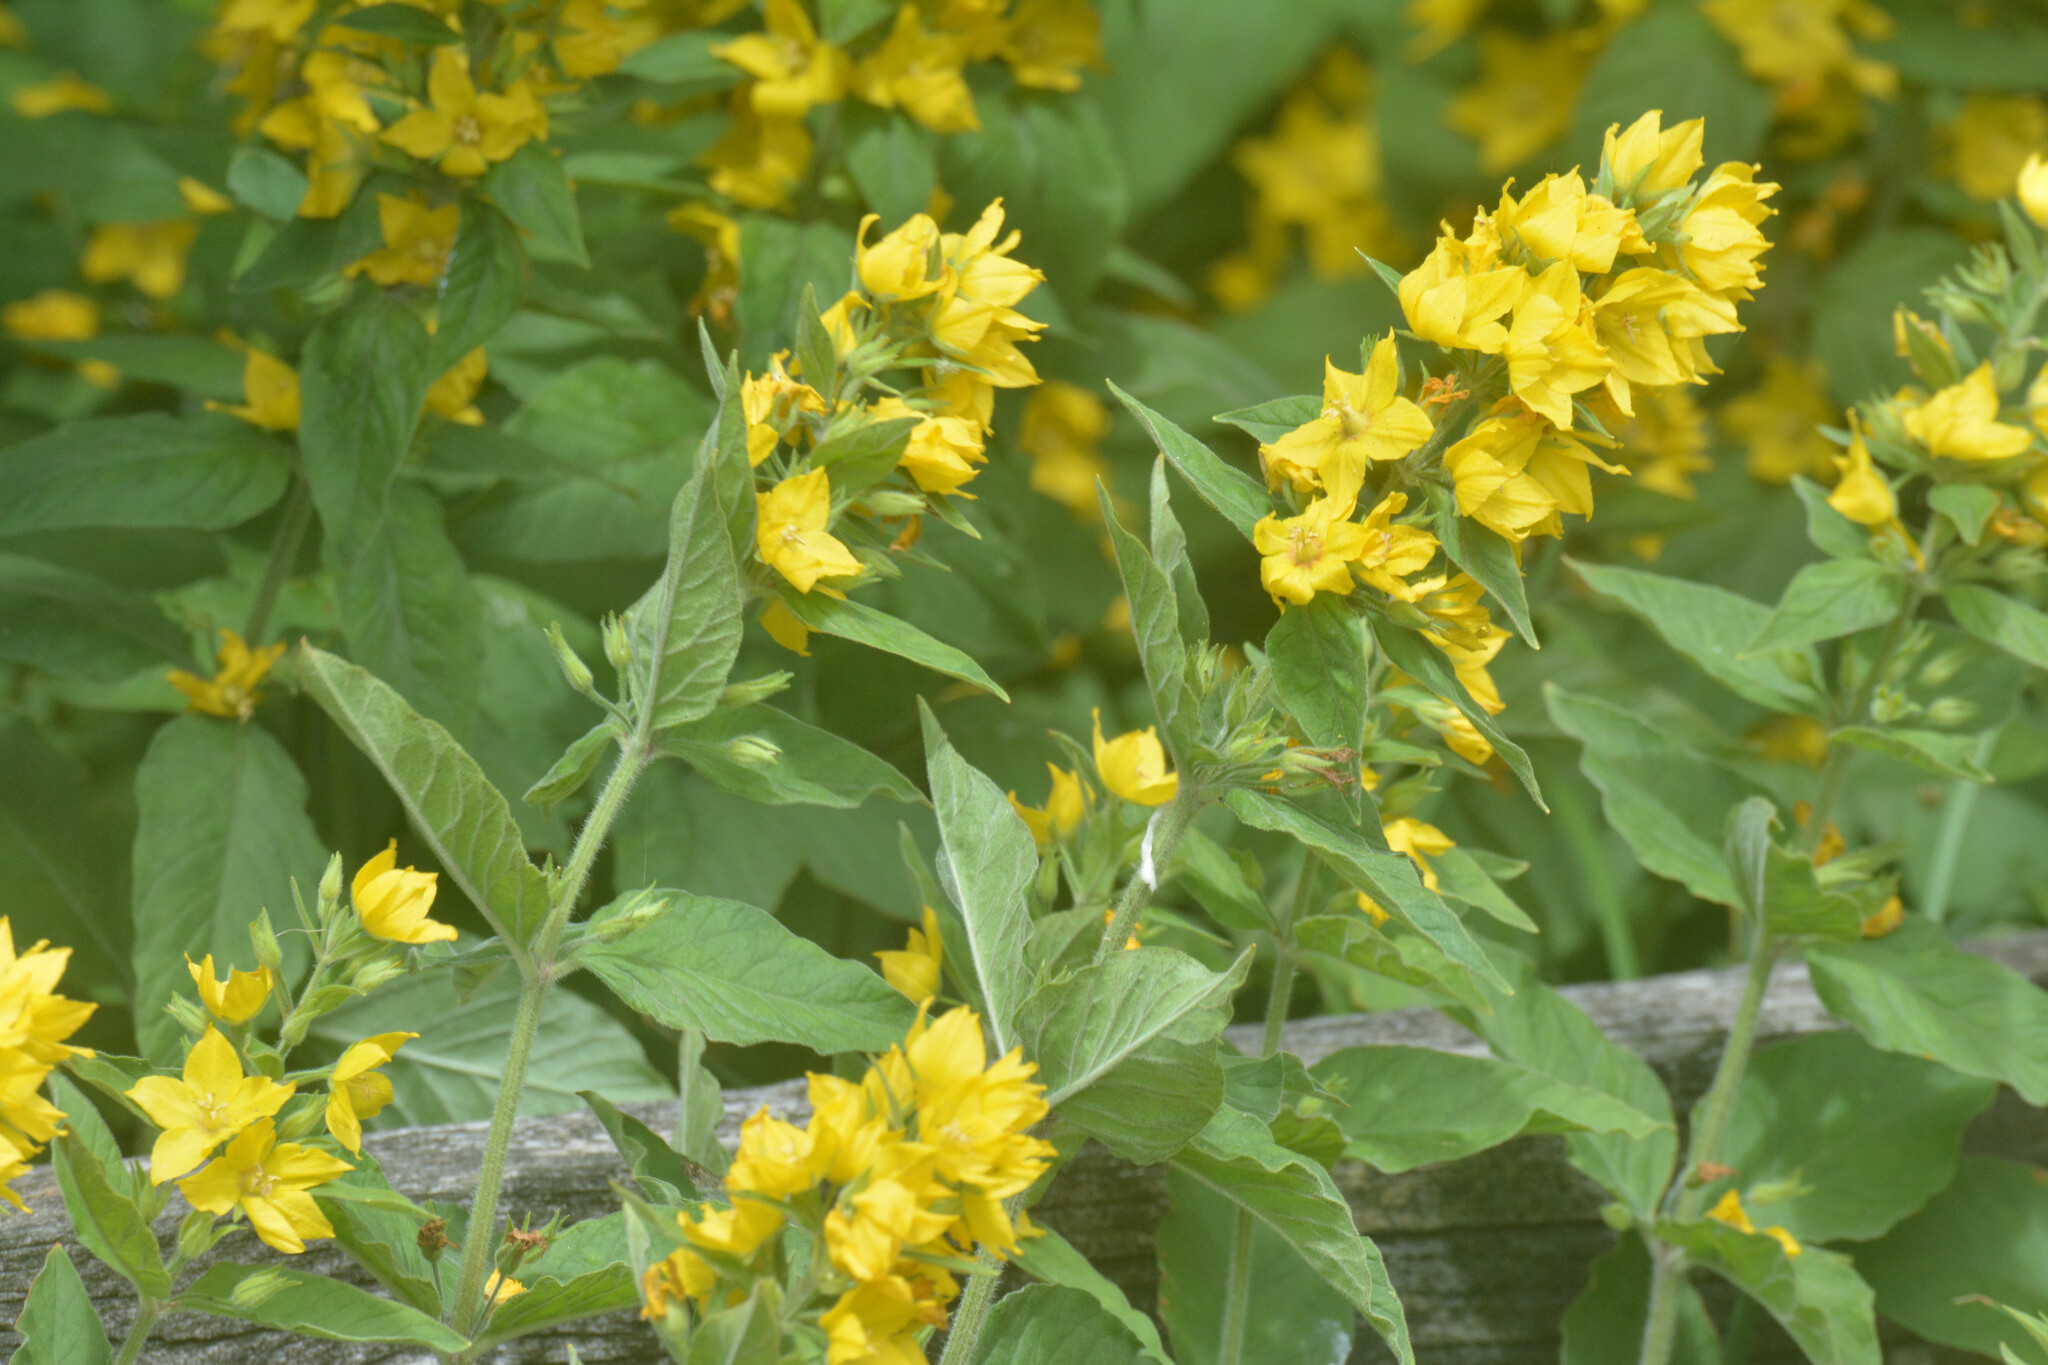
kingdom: Plantae
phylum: Tracheophyta
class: Magnoliopsida
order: Ericales
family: Primulaceae
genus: Lysimachia
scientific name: Lysimachia punctata
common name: Dotted loosestrife
